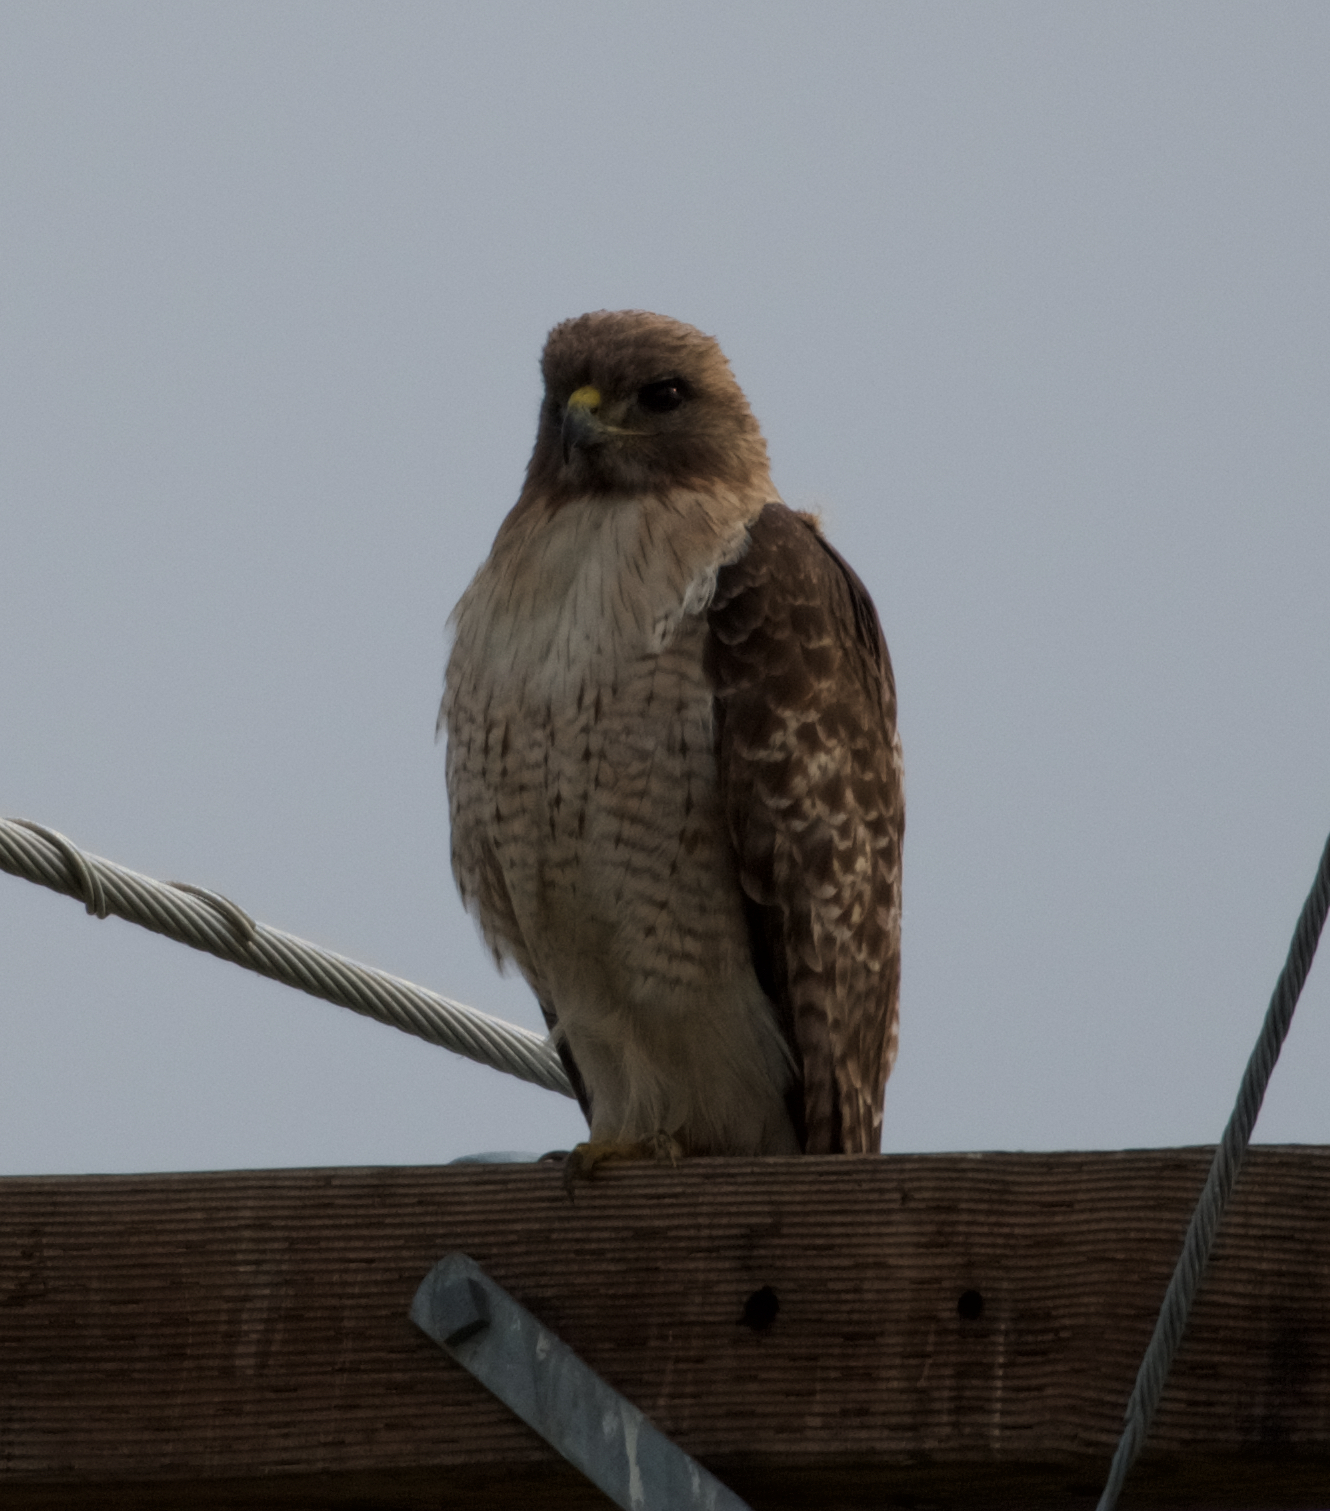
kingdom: Animalia
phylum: Chordata
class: Aves
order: Accipitriformes
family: Accipitridae
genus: Buteo
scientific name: Buteo jamaicensis
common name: Red-tailed hawk
